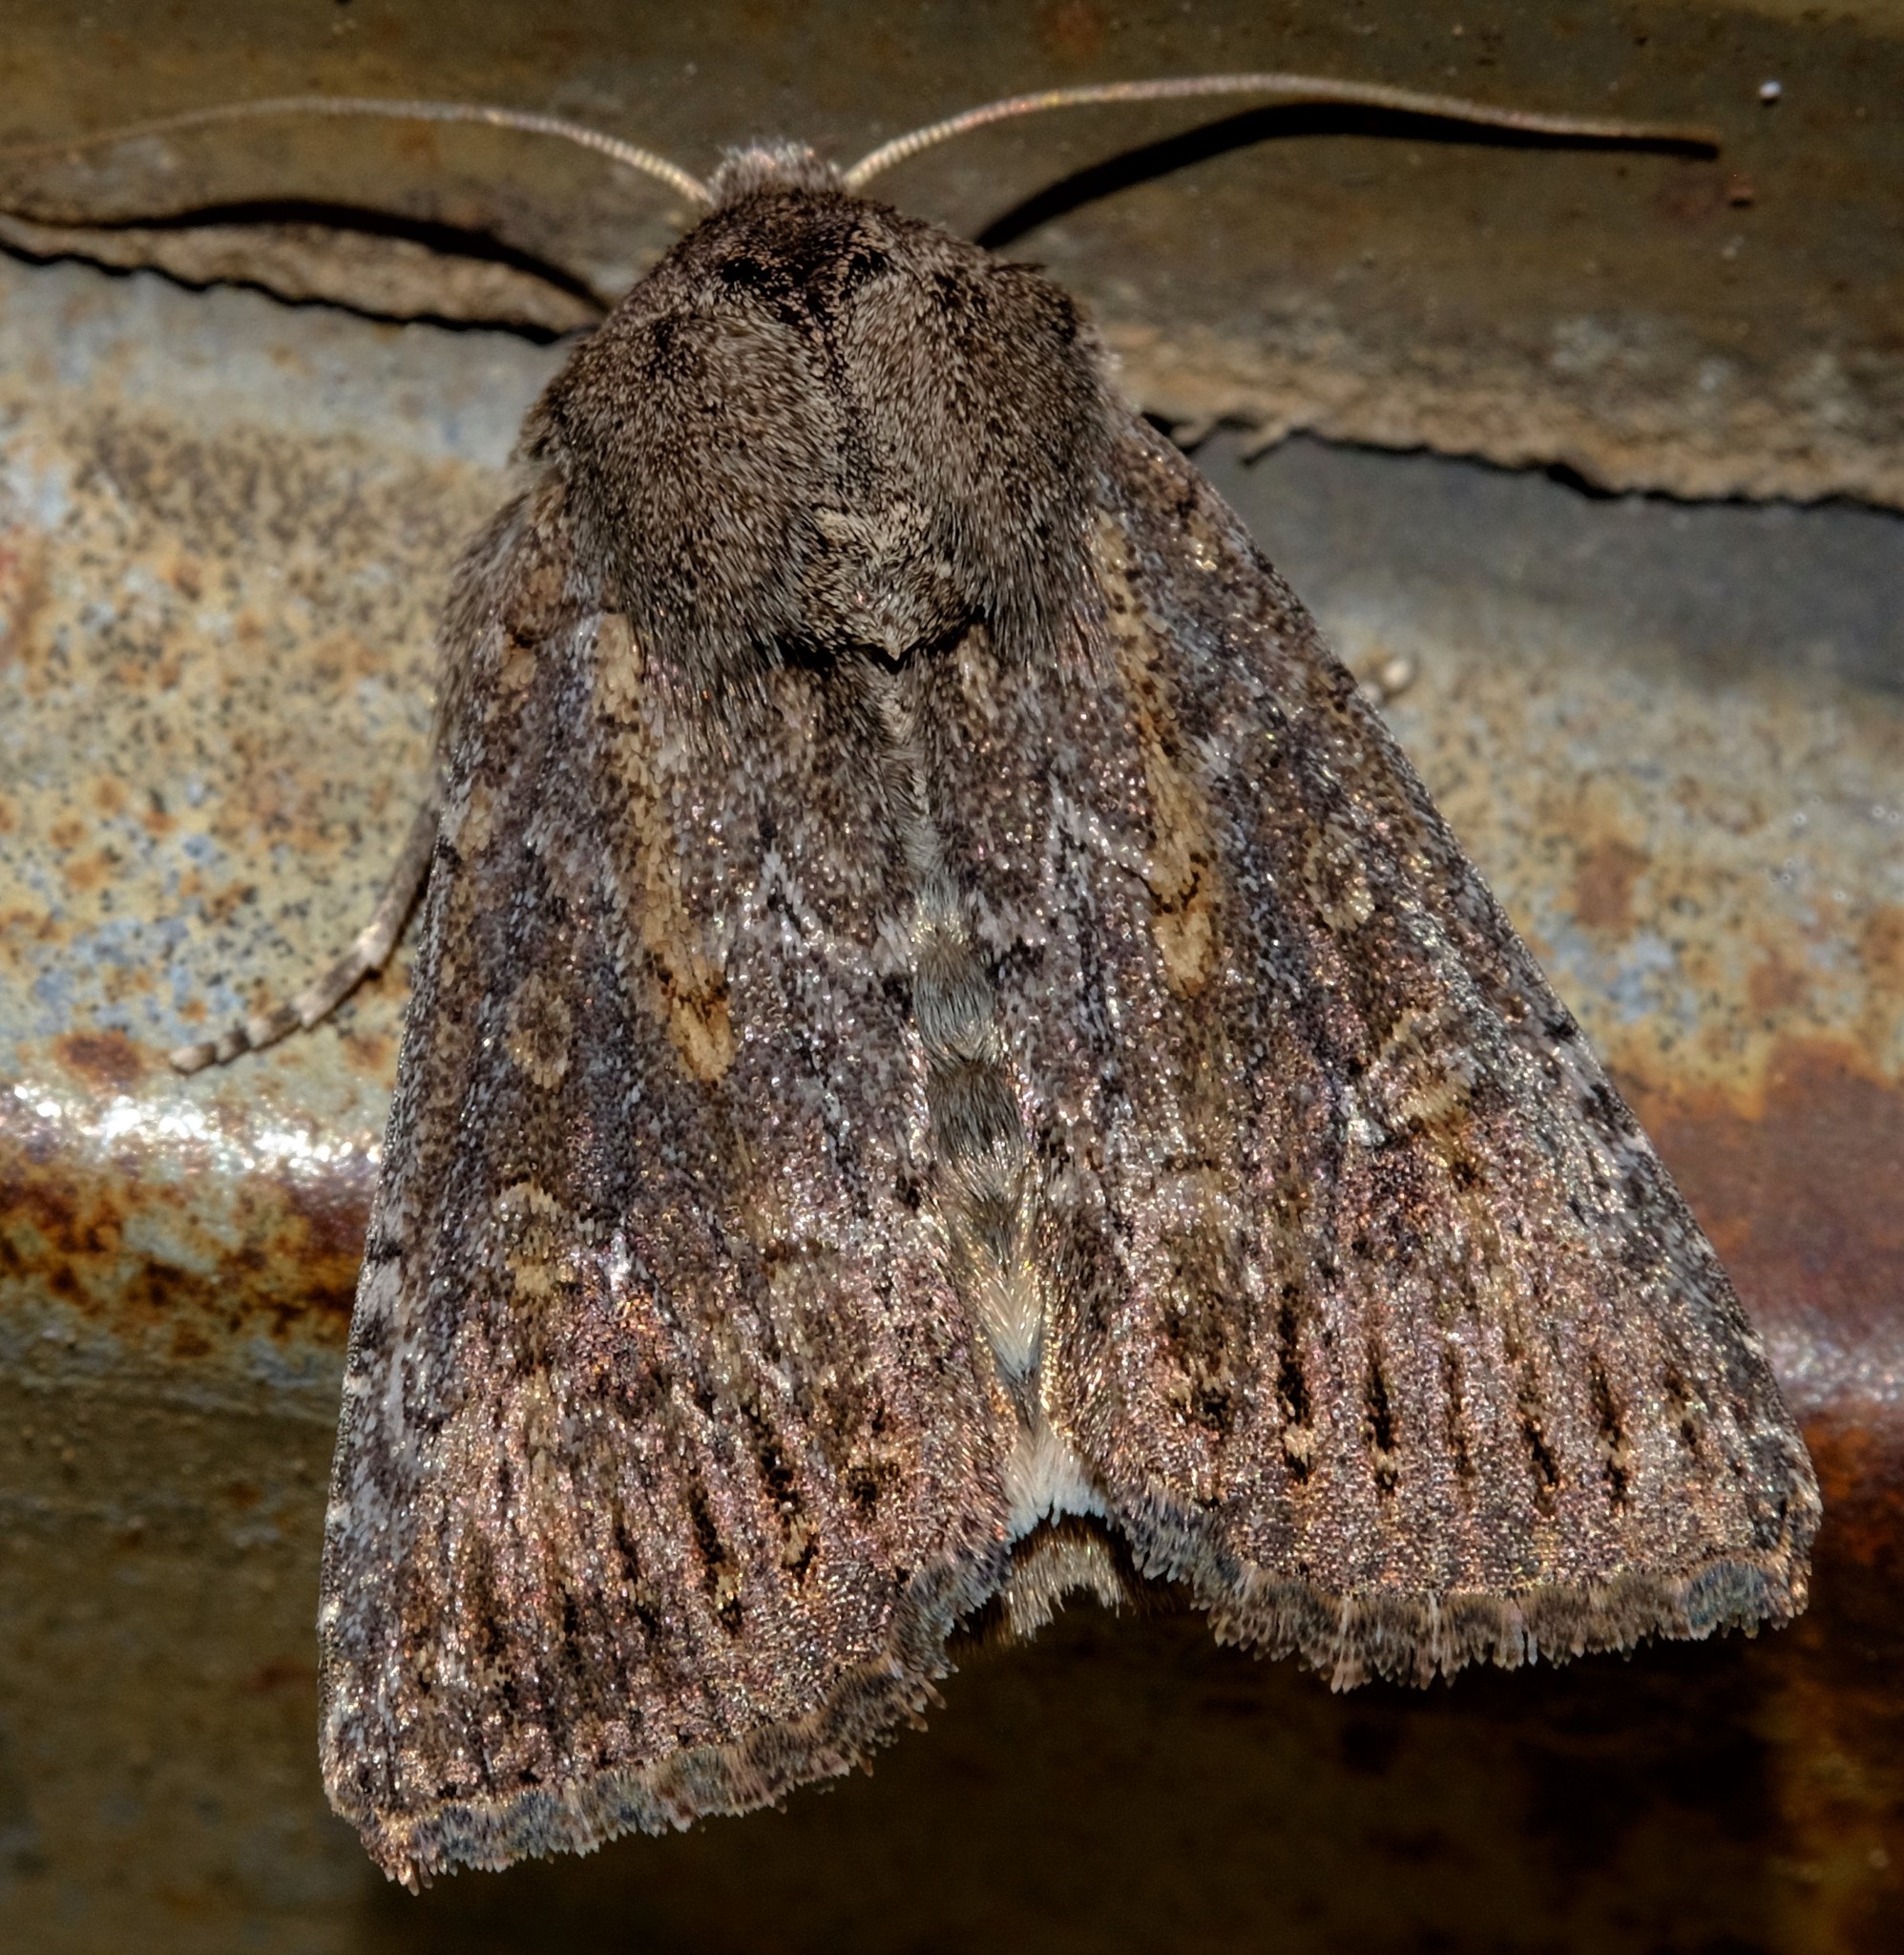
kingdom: Animalia
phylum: Arthropoda
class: Insecta
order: Lepidoptera
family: Noctuidae
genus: Dasygaster
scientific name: Dasygaster padockina
